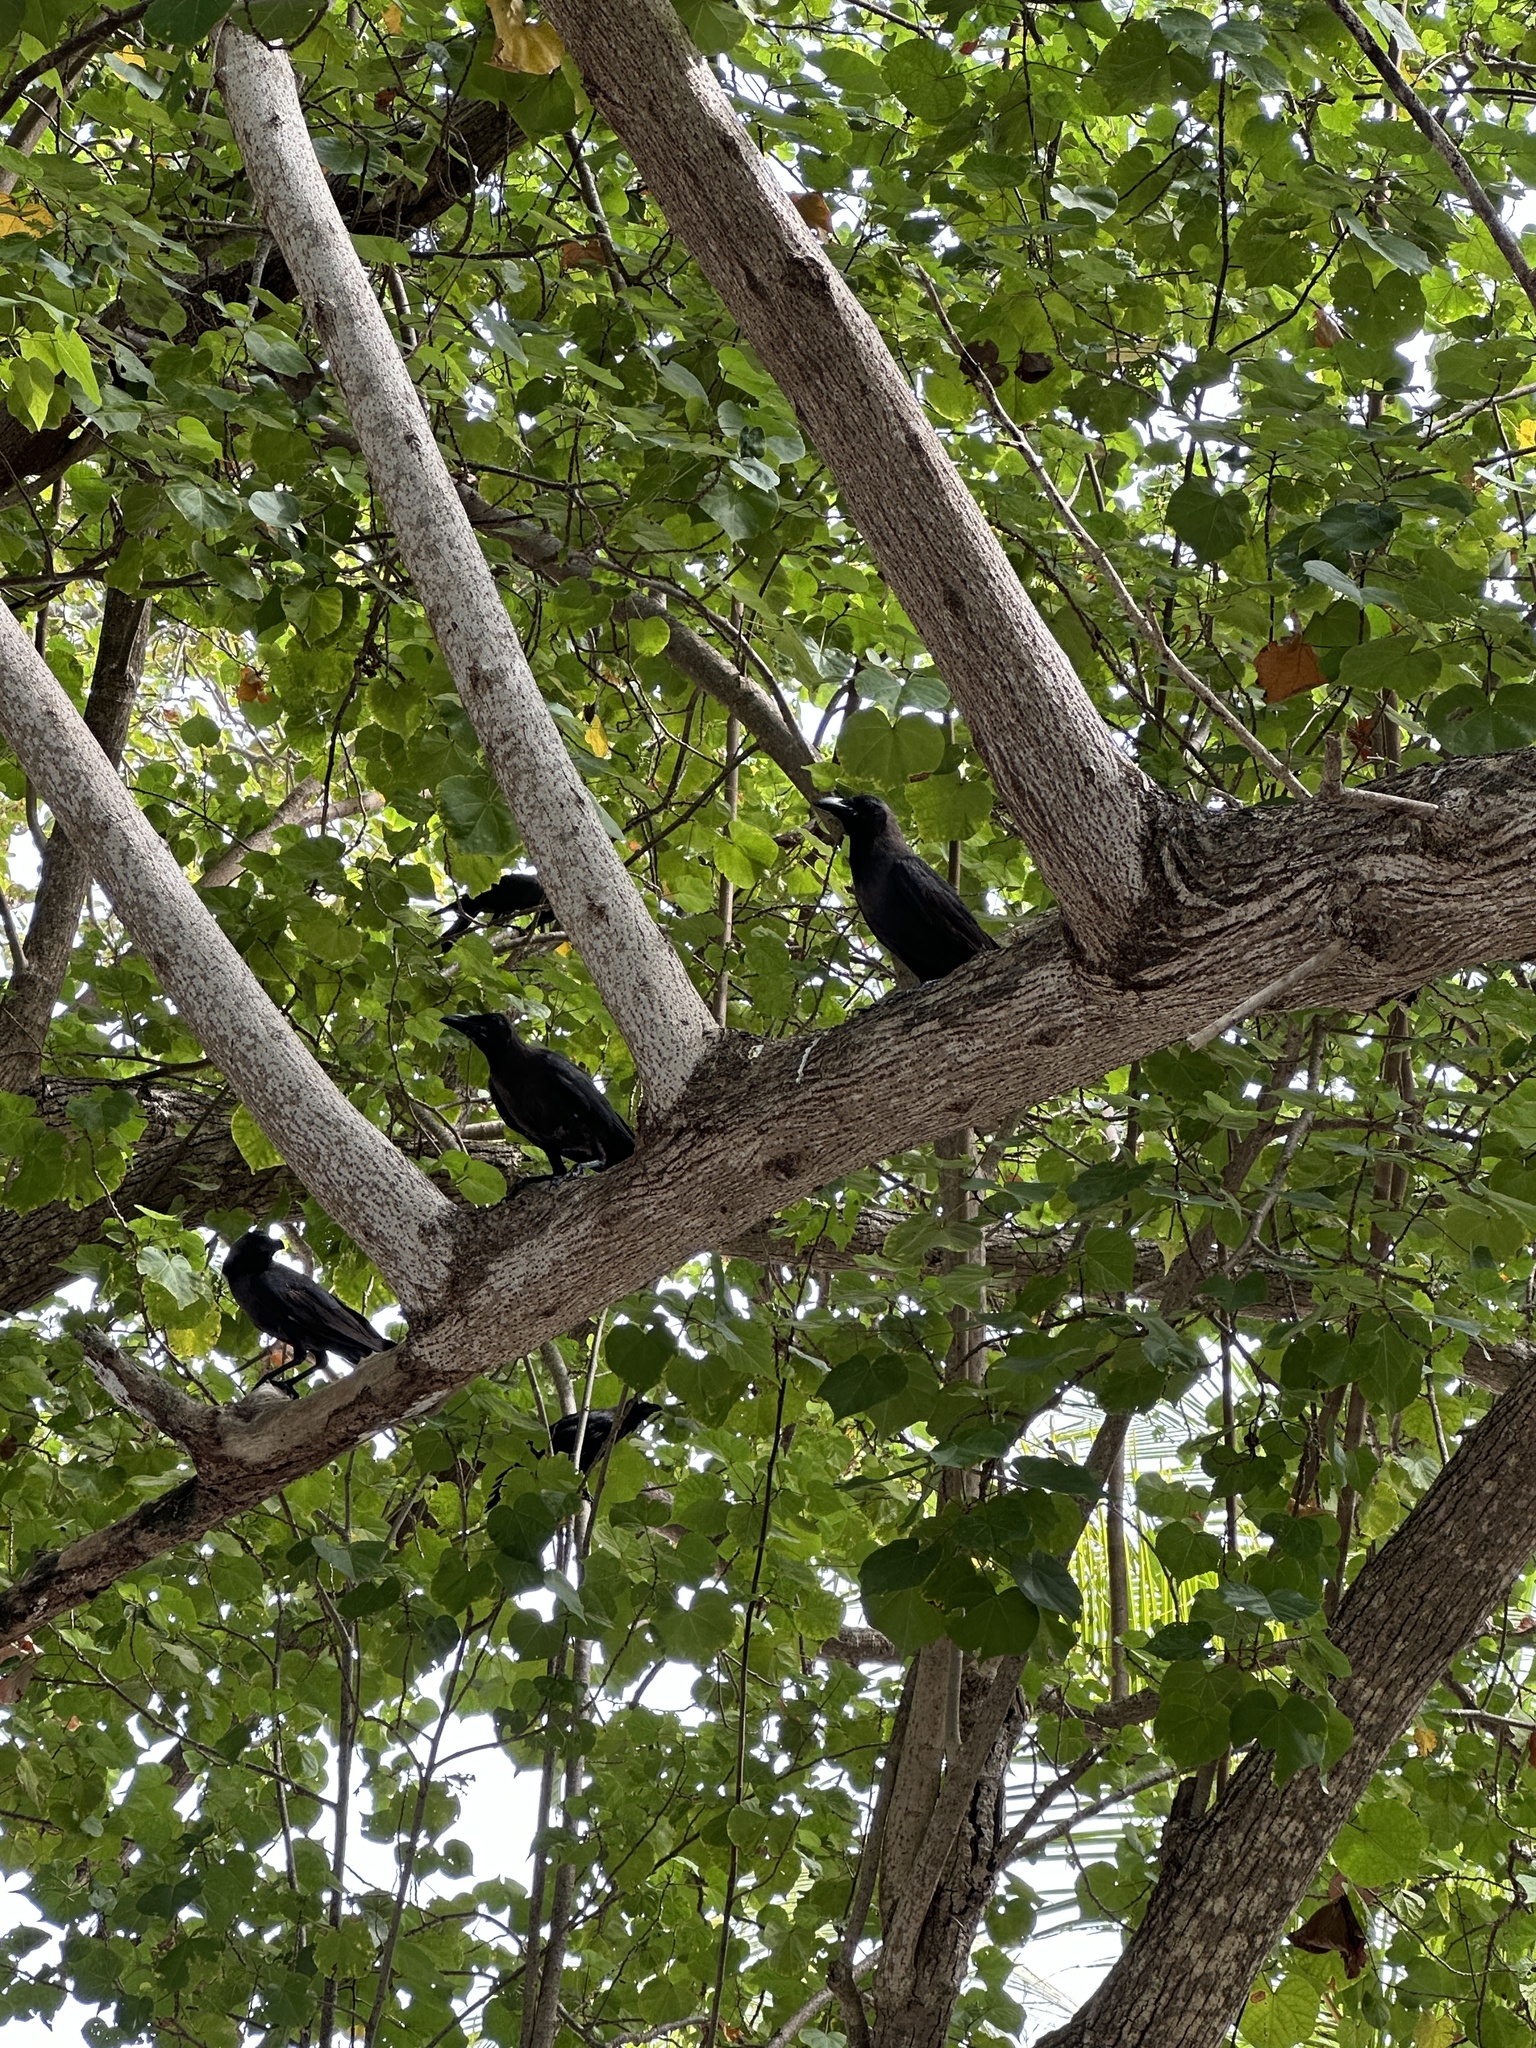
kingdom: Animalia
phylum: Chordata
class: Aves
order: Passeriformes
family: Corvidae
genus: Corvus
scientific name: Corvus splendens
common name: House crow
